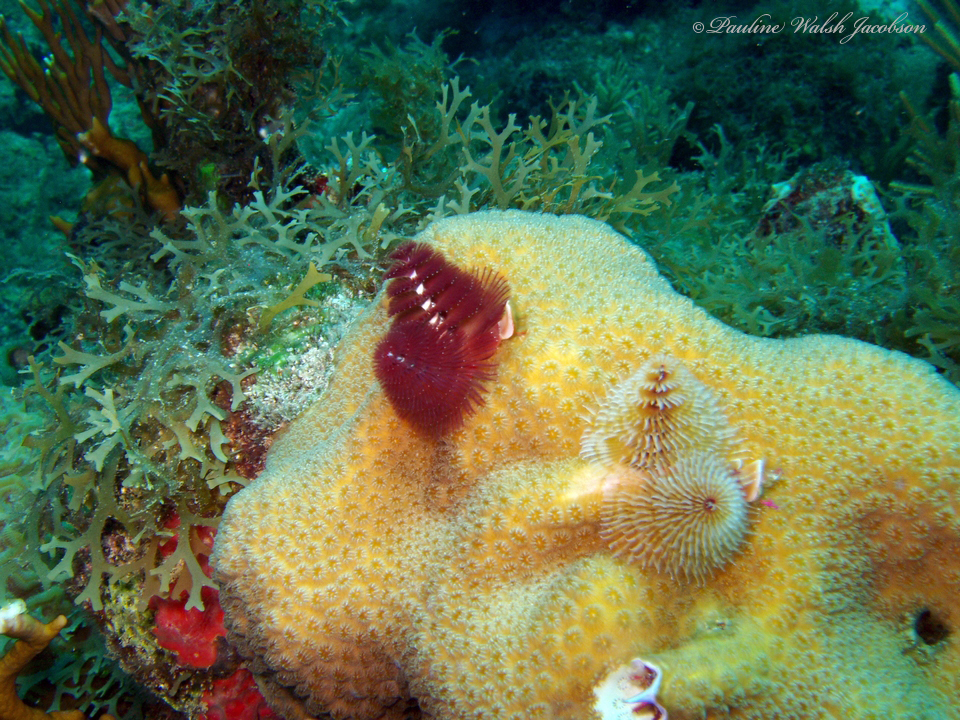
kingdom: Animalia
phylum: Annelida
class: Polychaeta
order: Sabellida
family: Serpulidae
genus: Spirobranchus
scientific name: Spirobranchus giganteus
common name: Christmas tree worm
